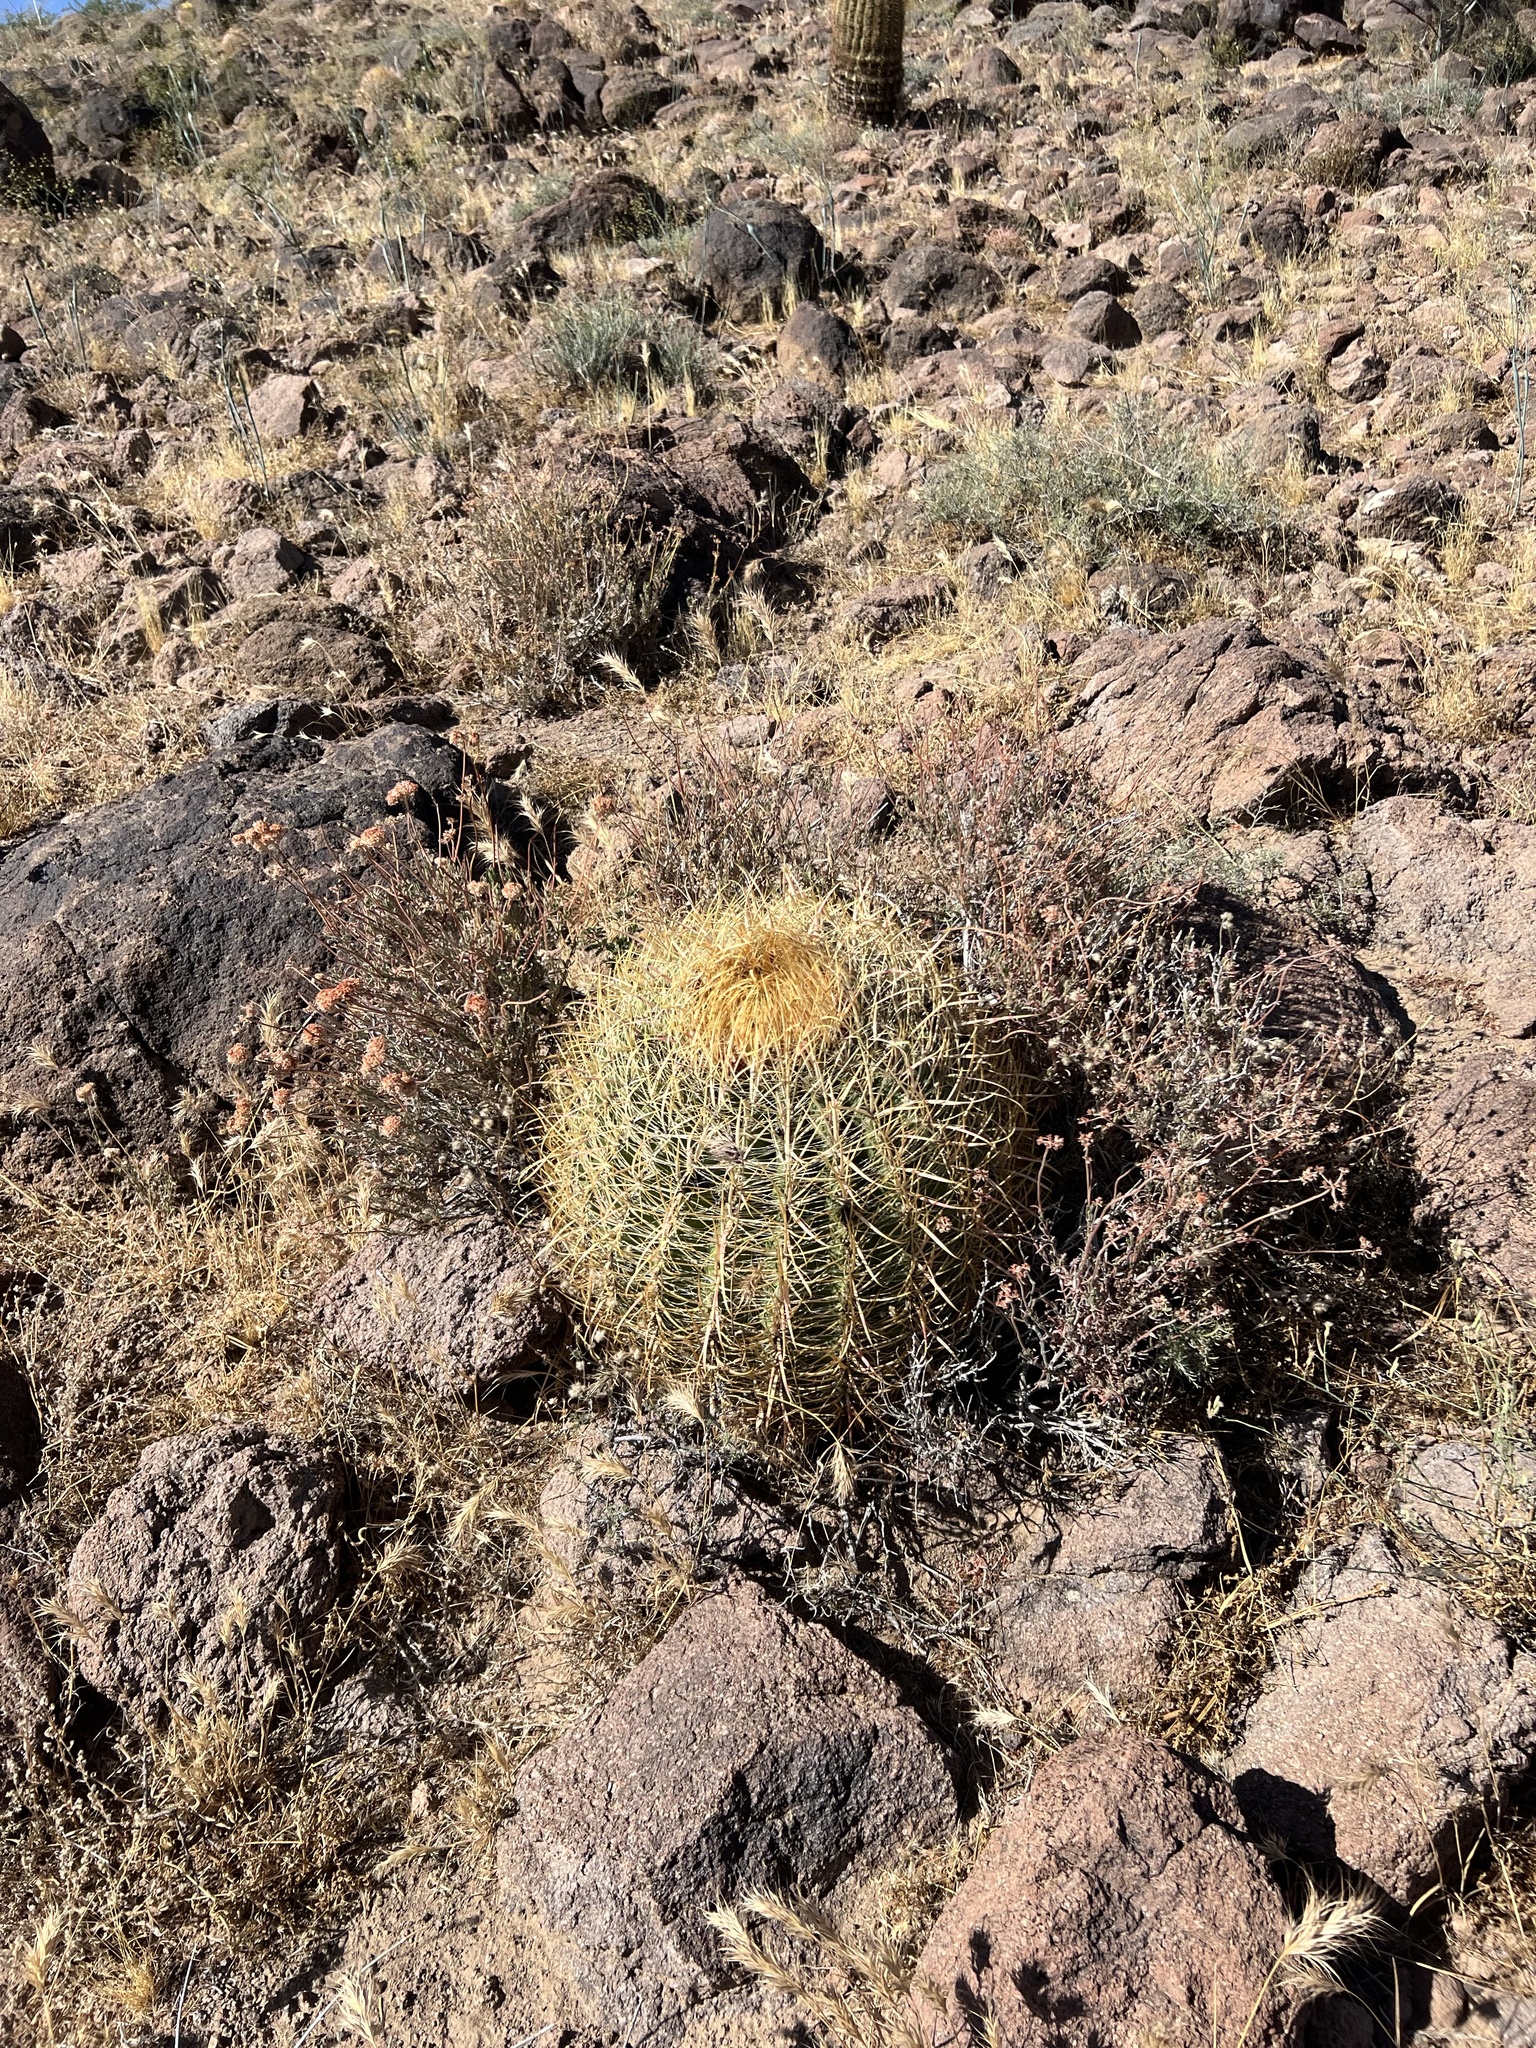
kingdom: Plantae
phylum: Tracheophyta
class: Magnoliopsida
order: Caryophyllales
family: Cactaceae
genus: Ferocactus
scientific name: Ferocactus cylindraceus
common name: California barrel cactus
